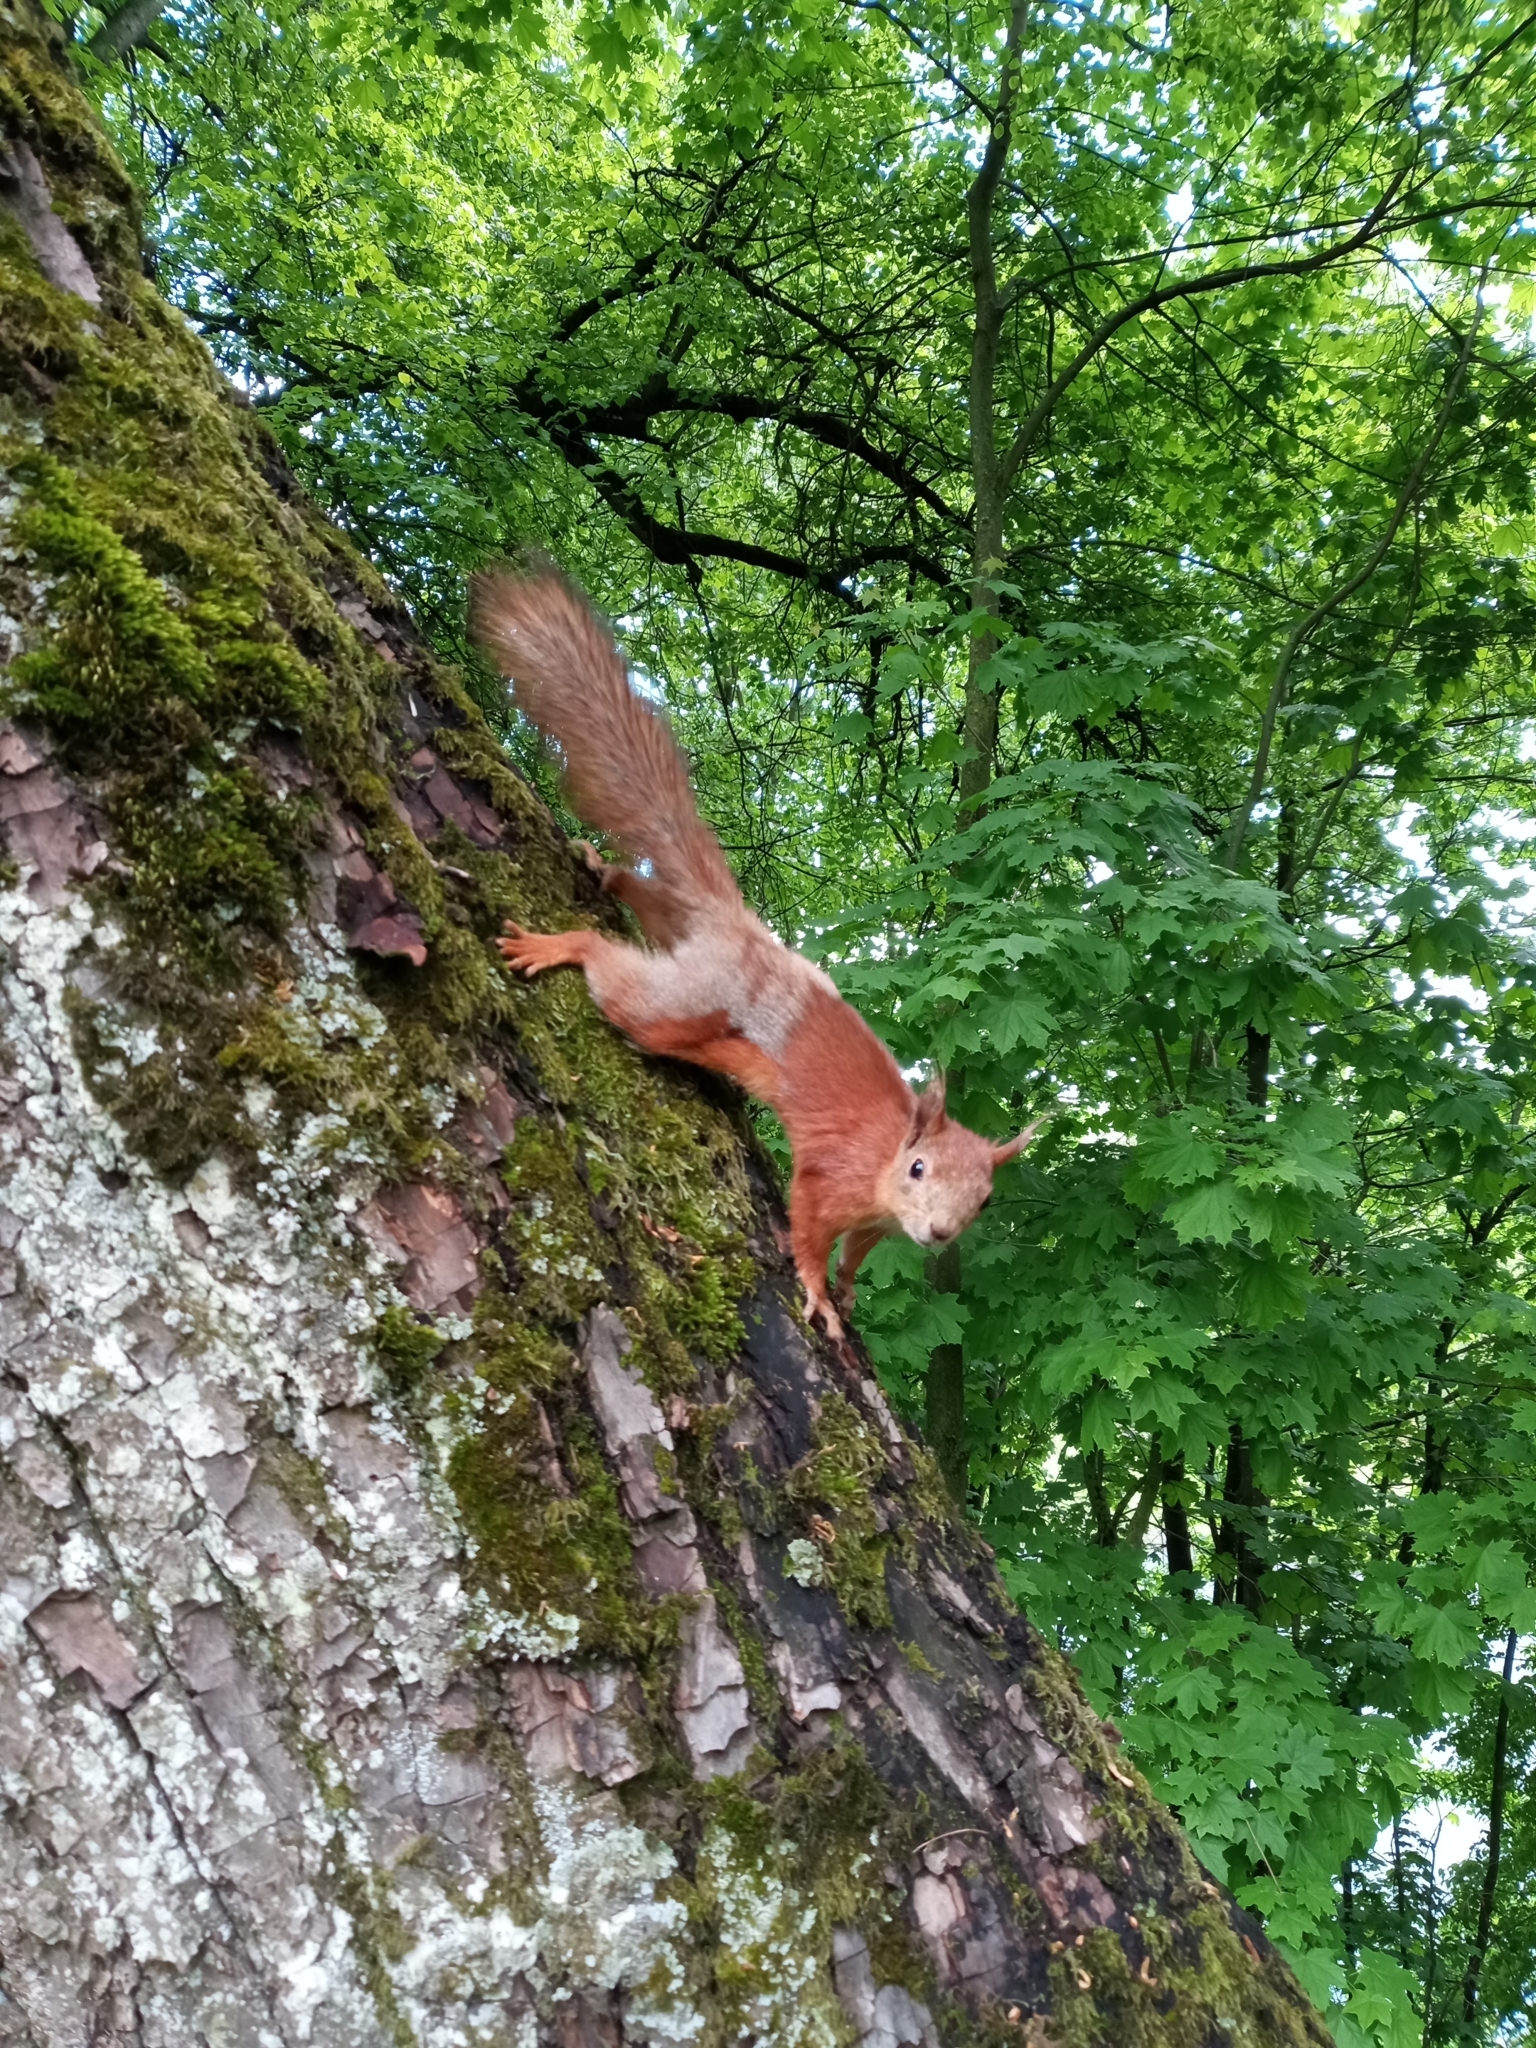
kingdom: Animalia
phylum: Chordata
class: Mammalia
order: Rodentia
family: Sciuridae
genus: Sciurus
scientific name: Sciurus vulgaris
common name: Eurasian red squirrel
